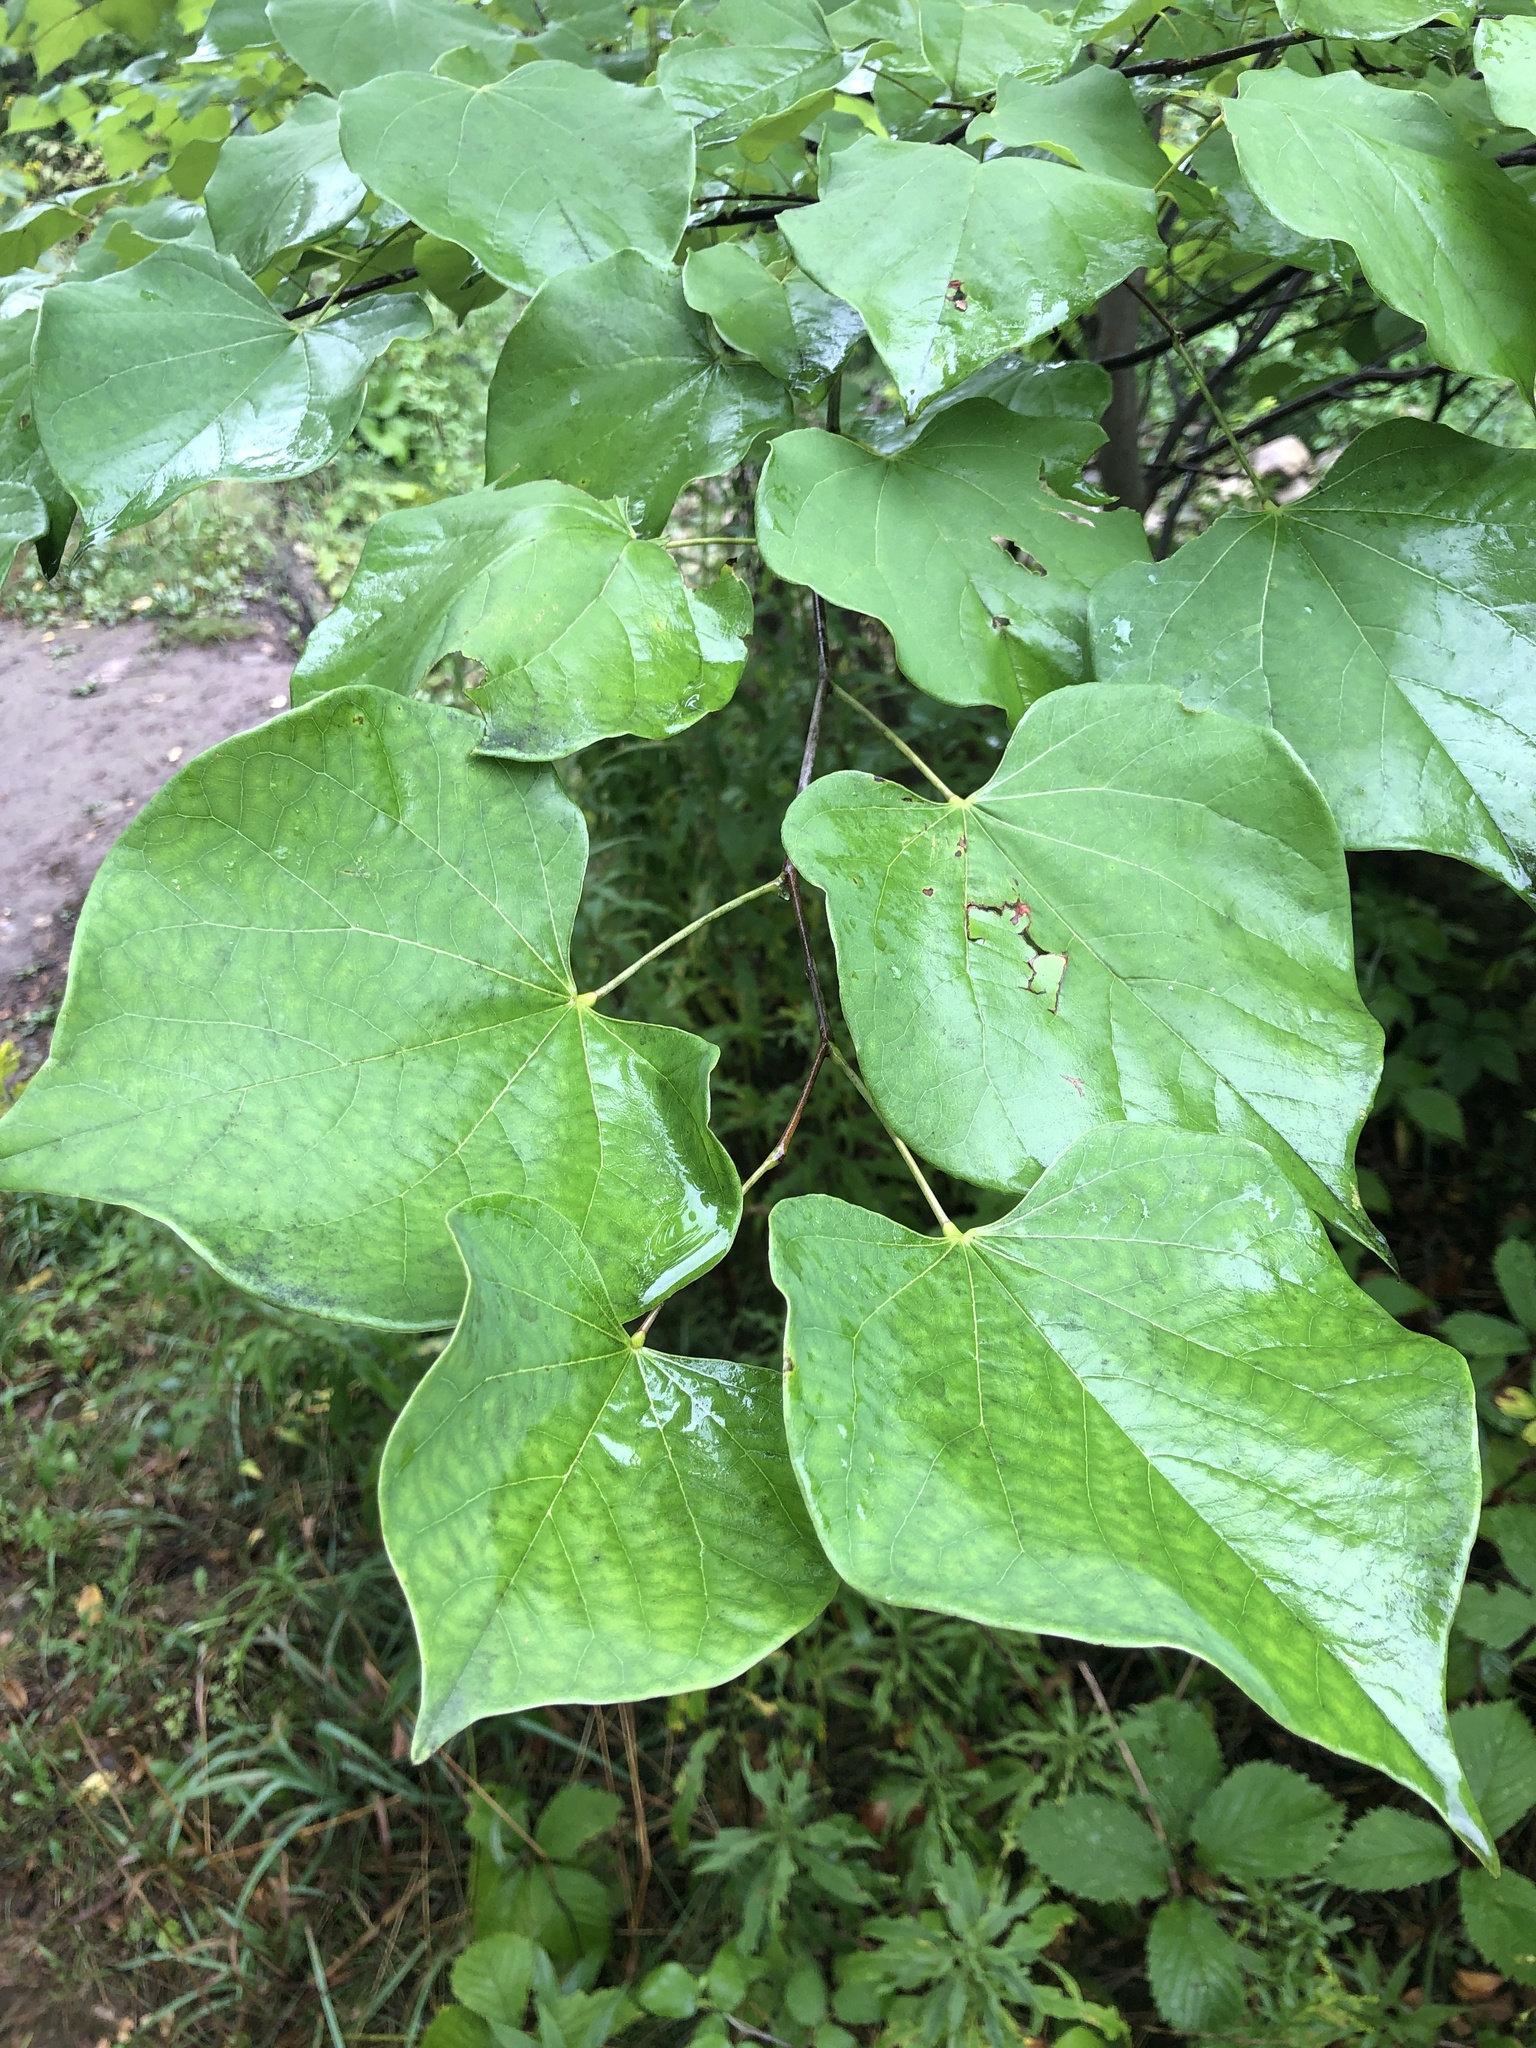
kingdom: Plantae
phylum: Tracheophyta
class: Magnoliopsida
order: Fabales
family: Fabaceae
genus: Cercis
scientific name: Cercis canadensis
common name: Eastern redbud
